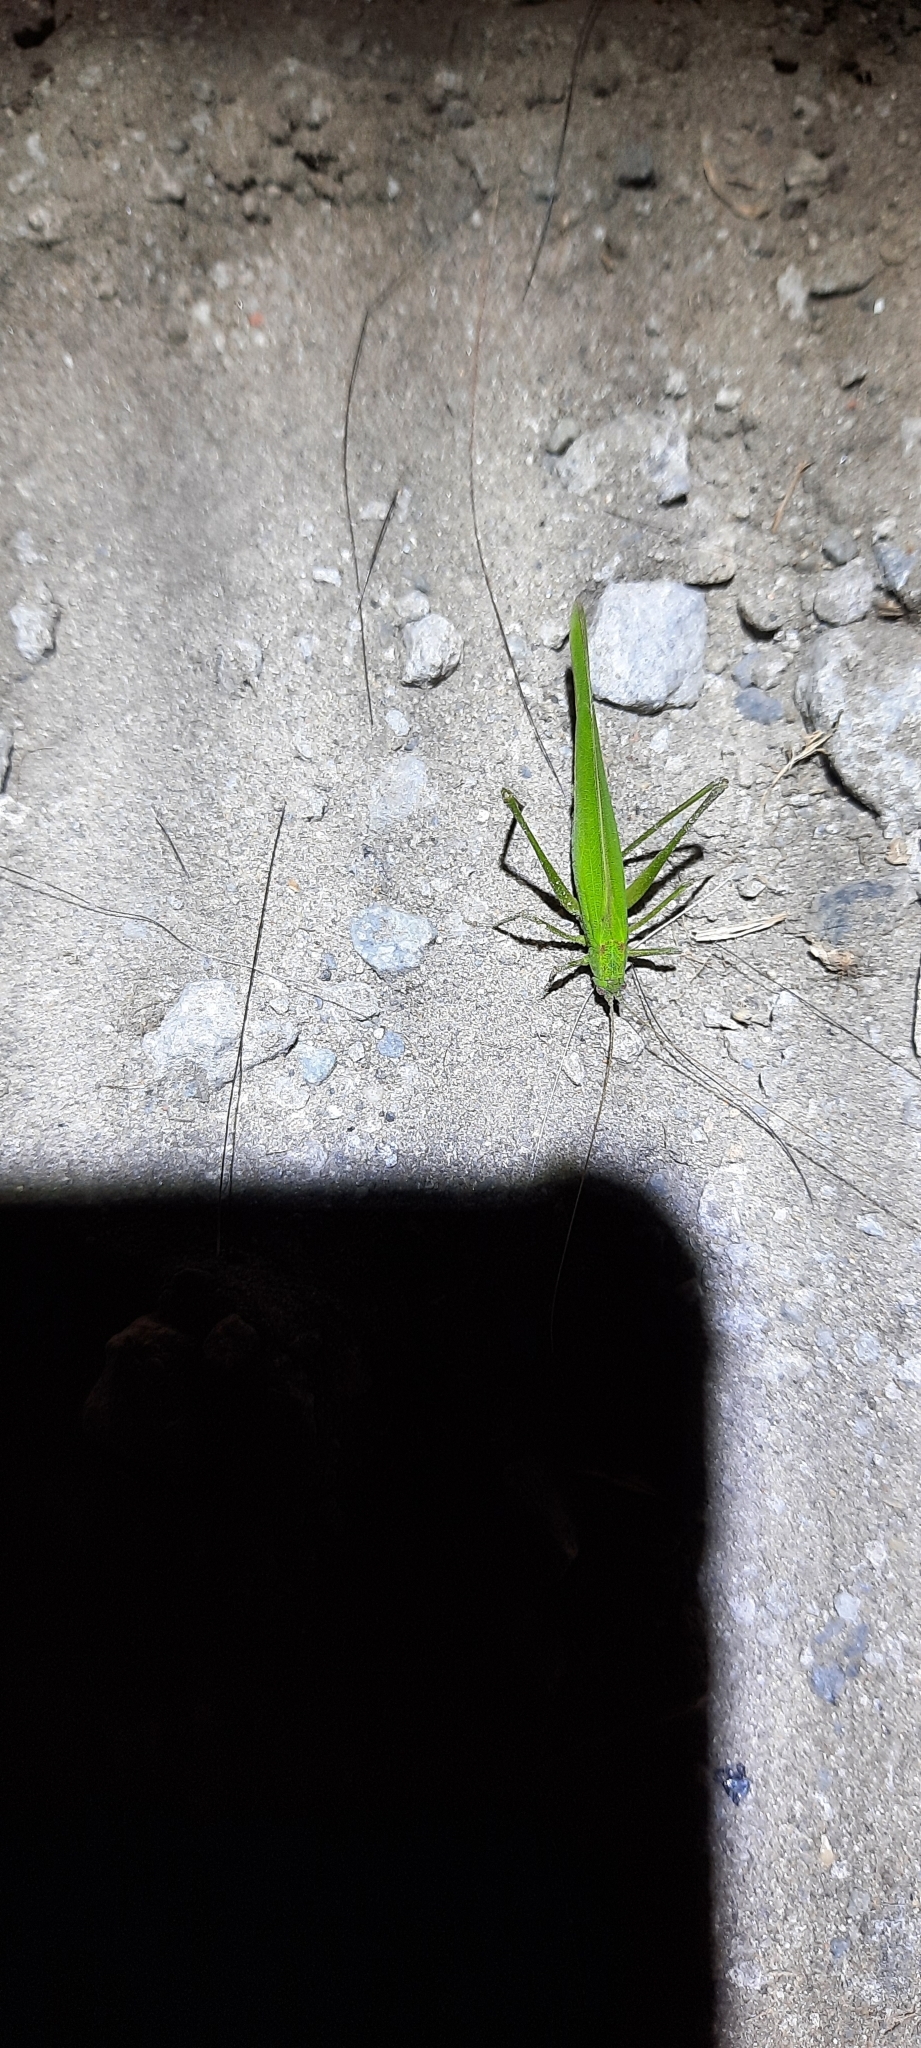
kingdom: Animalia
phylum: Arthropoda
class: Insecta
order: Orthoptera
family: Tettigoniidae
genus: Phaneroptera
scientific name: Phaneroptera falcata
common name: Sickle-bearing bush-cricket
